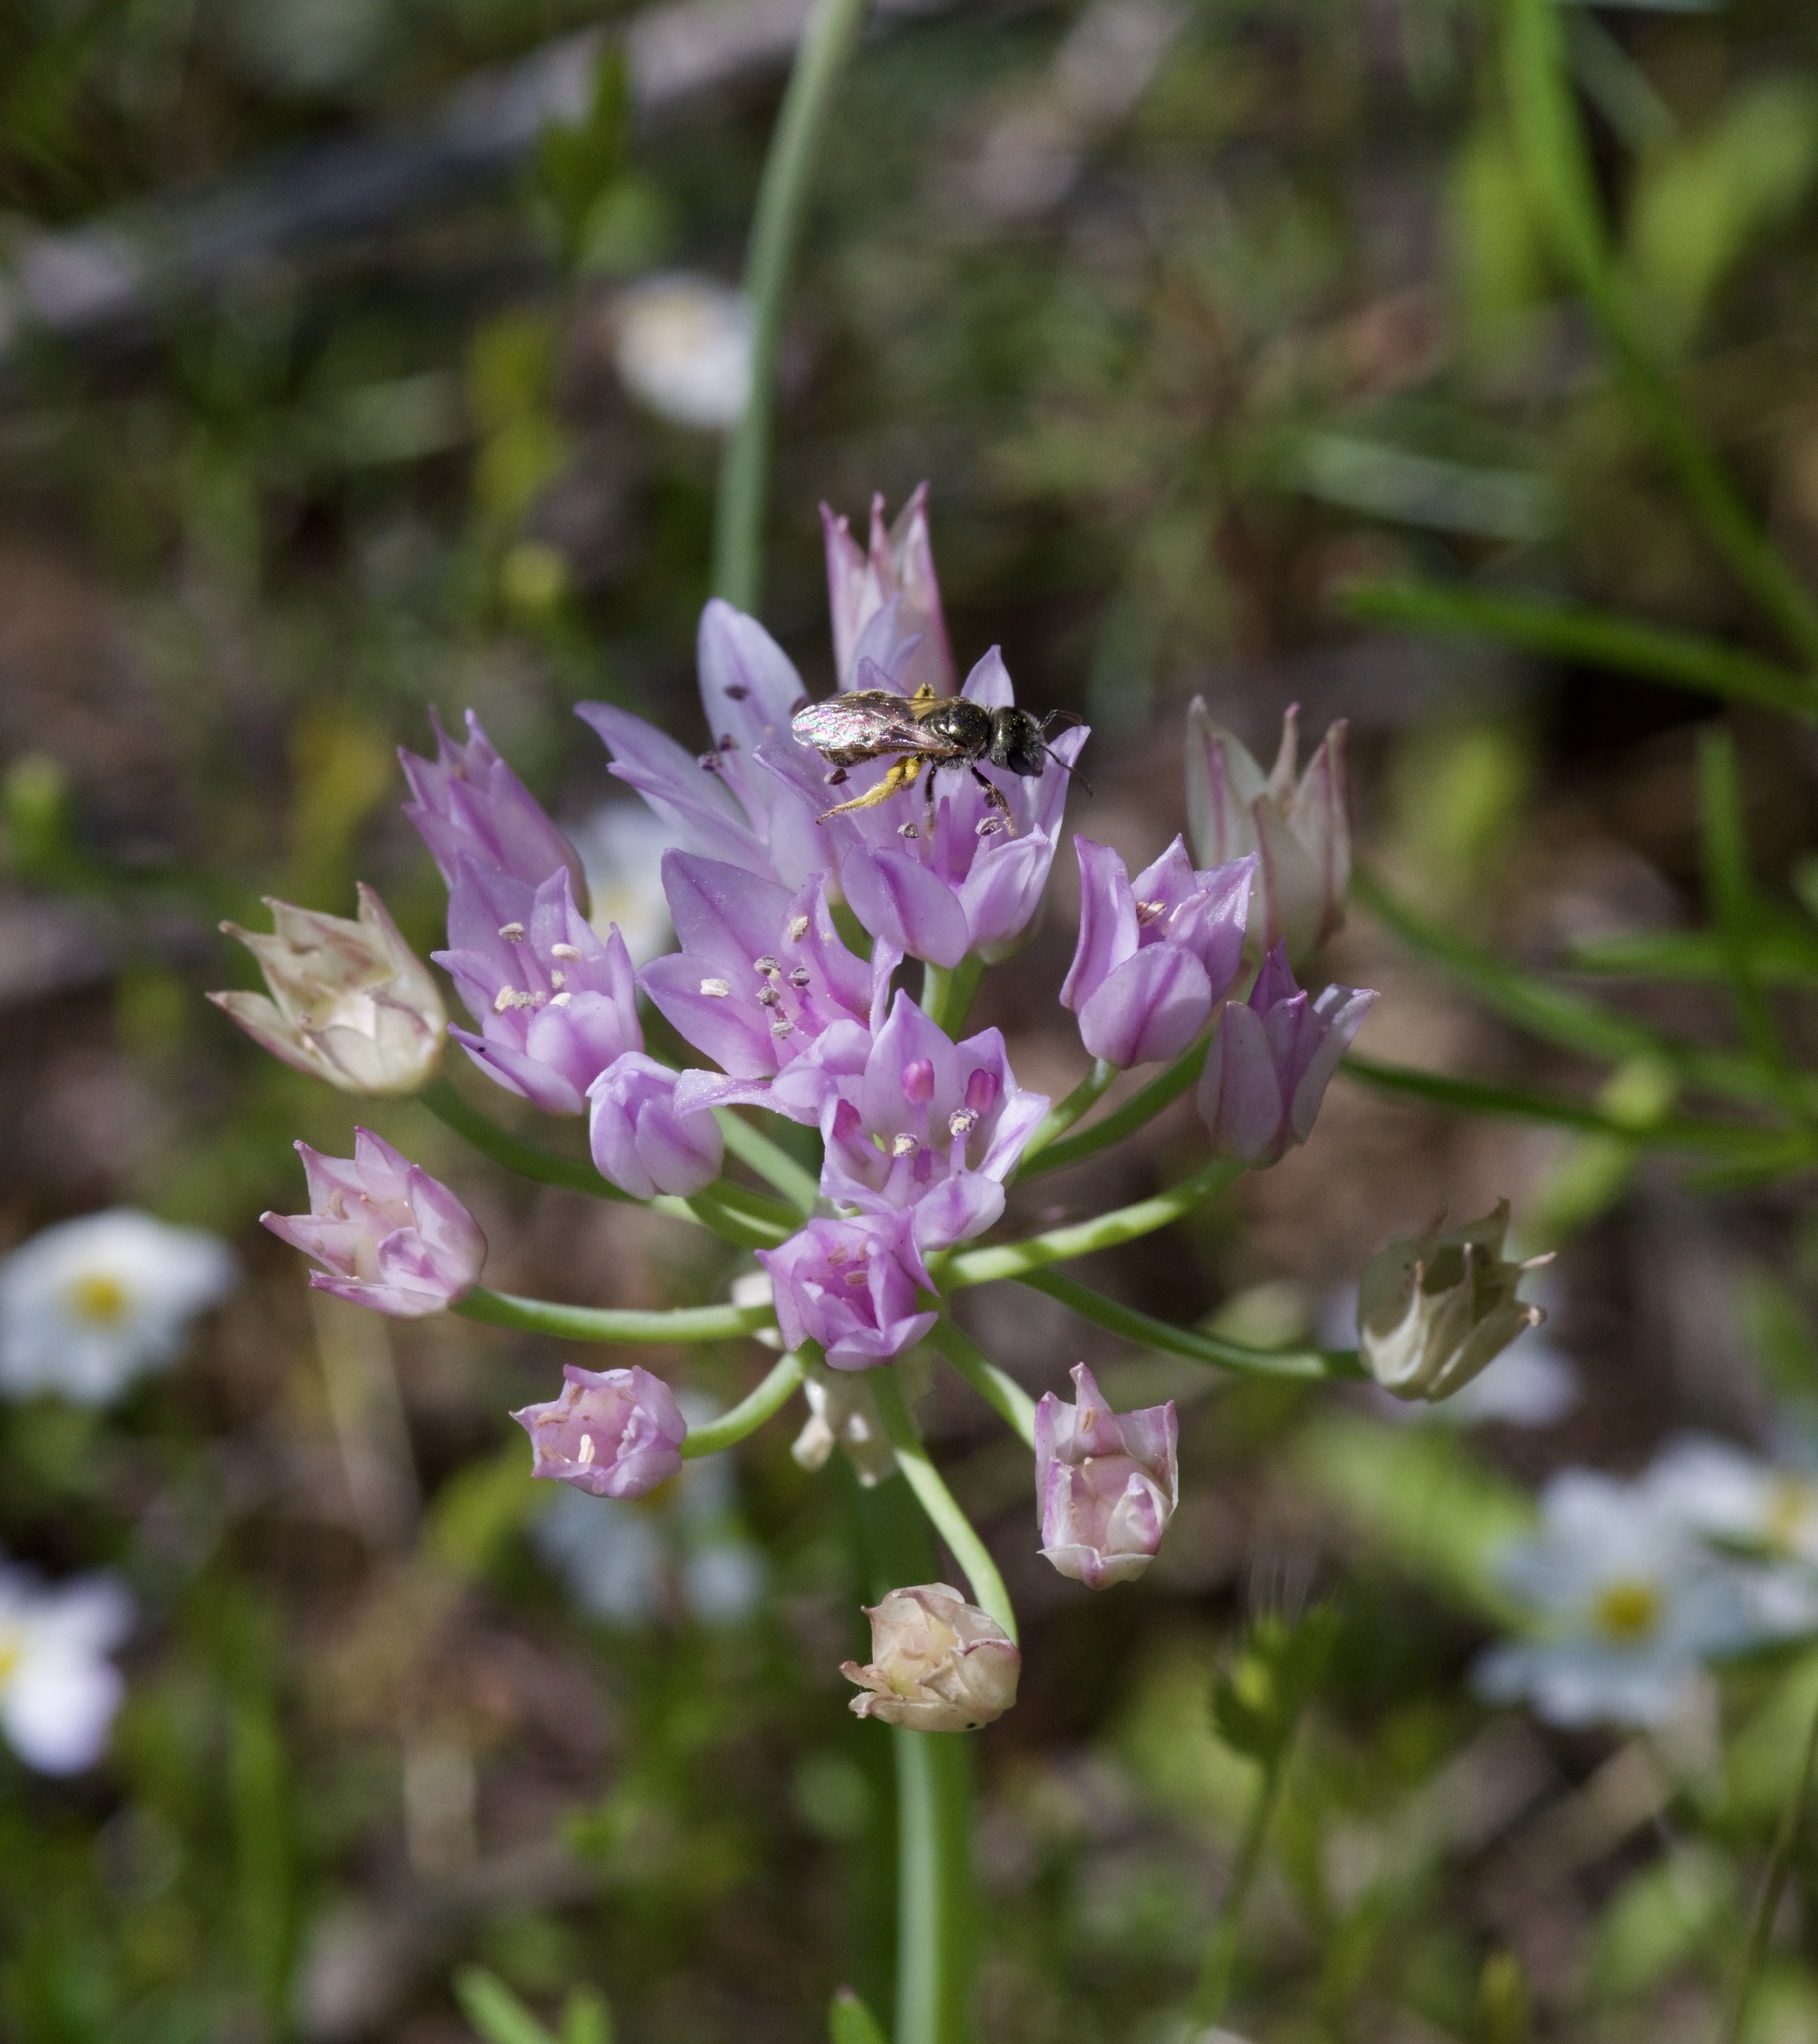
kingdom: Plantae
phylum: Tracheophyta
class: Liliopsida
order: Asparagales
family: Amaryllidaceae
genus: Allium
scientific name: Allium drummondii
